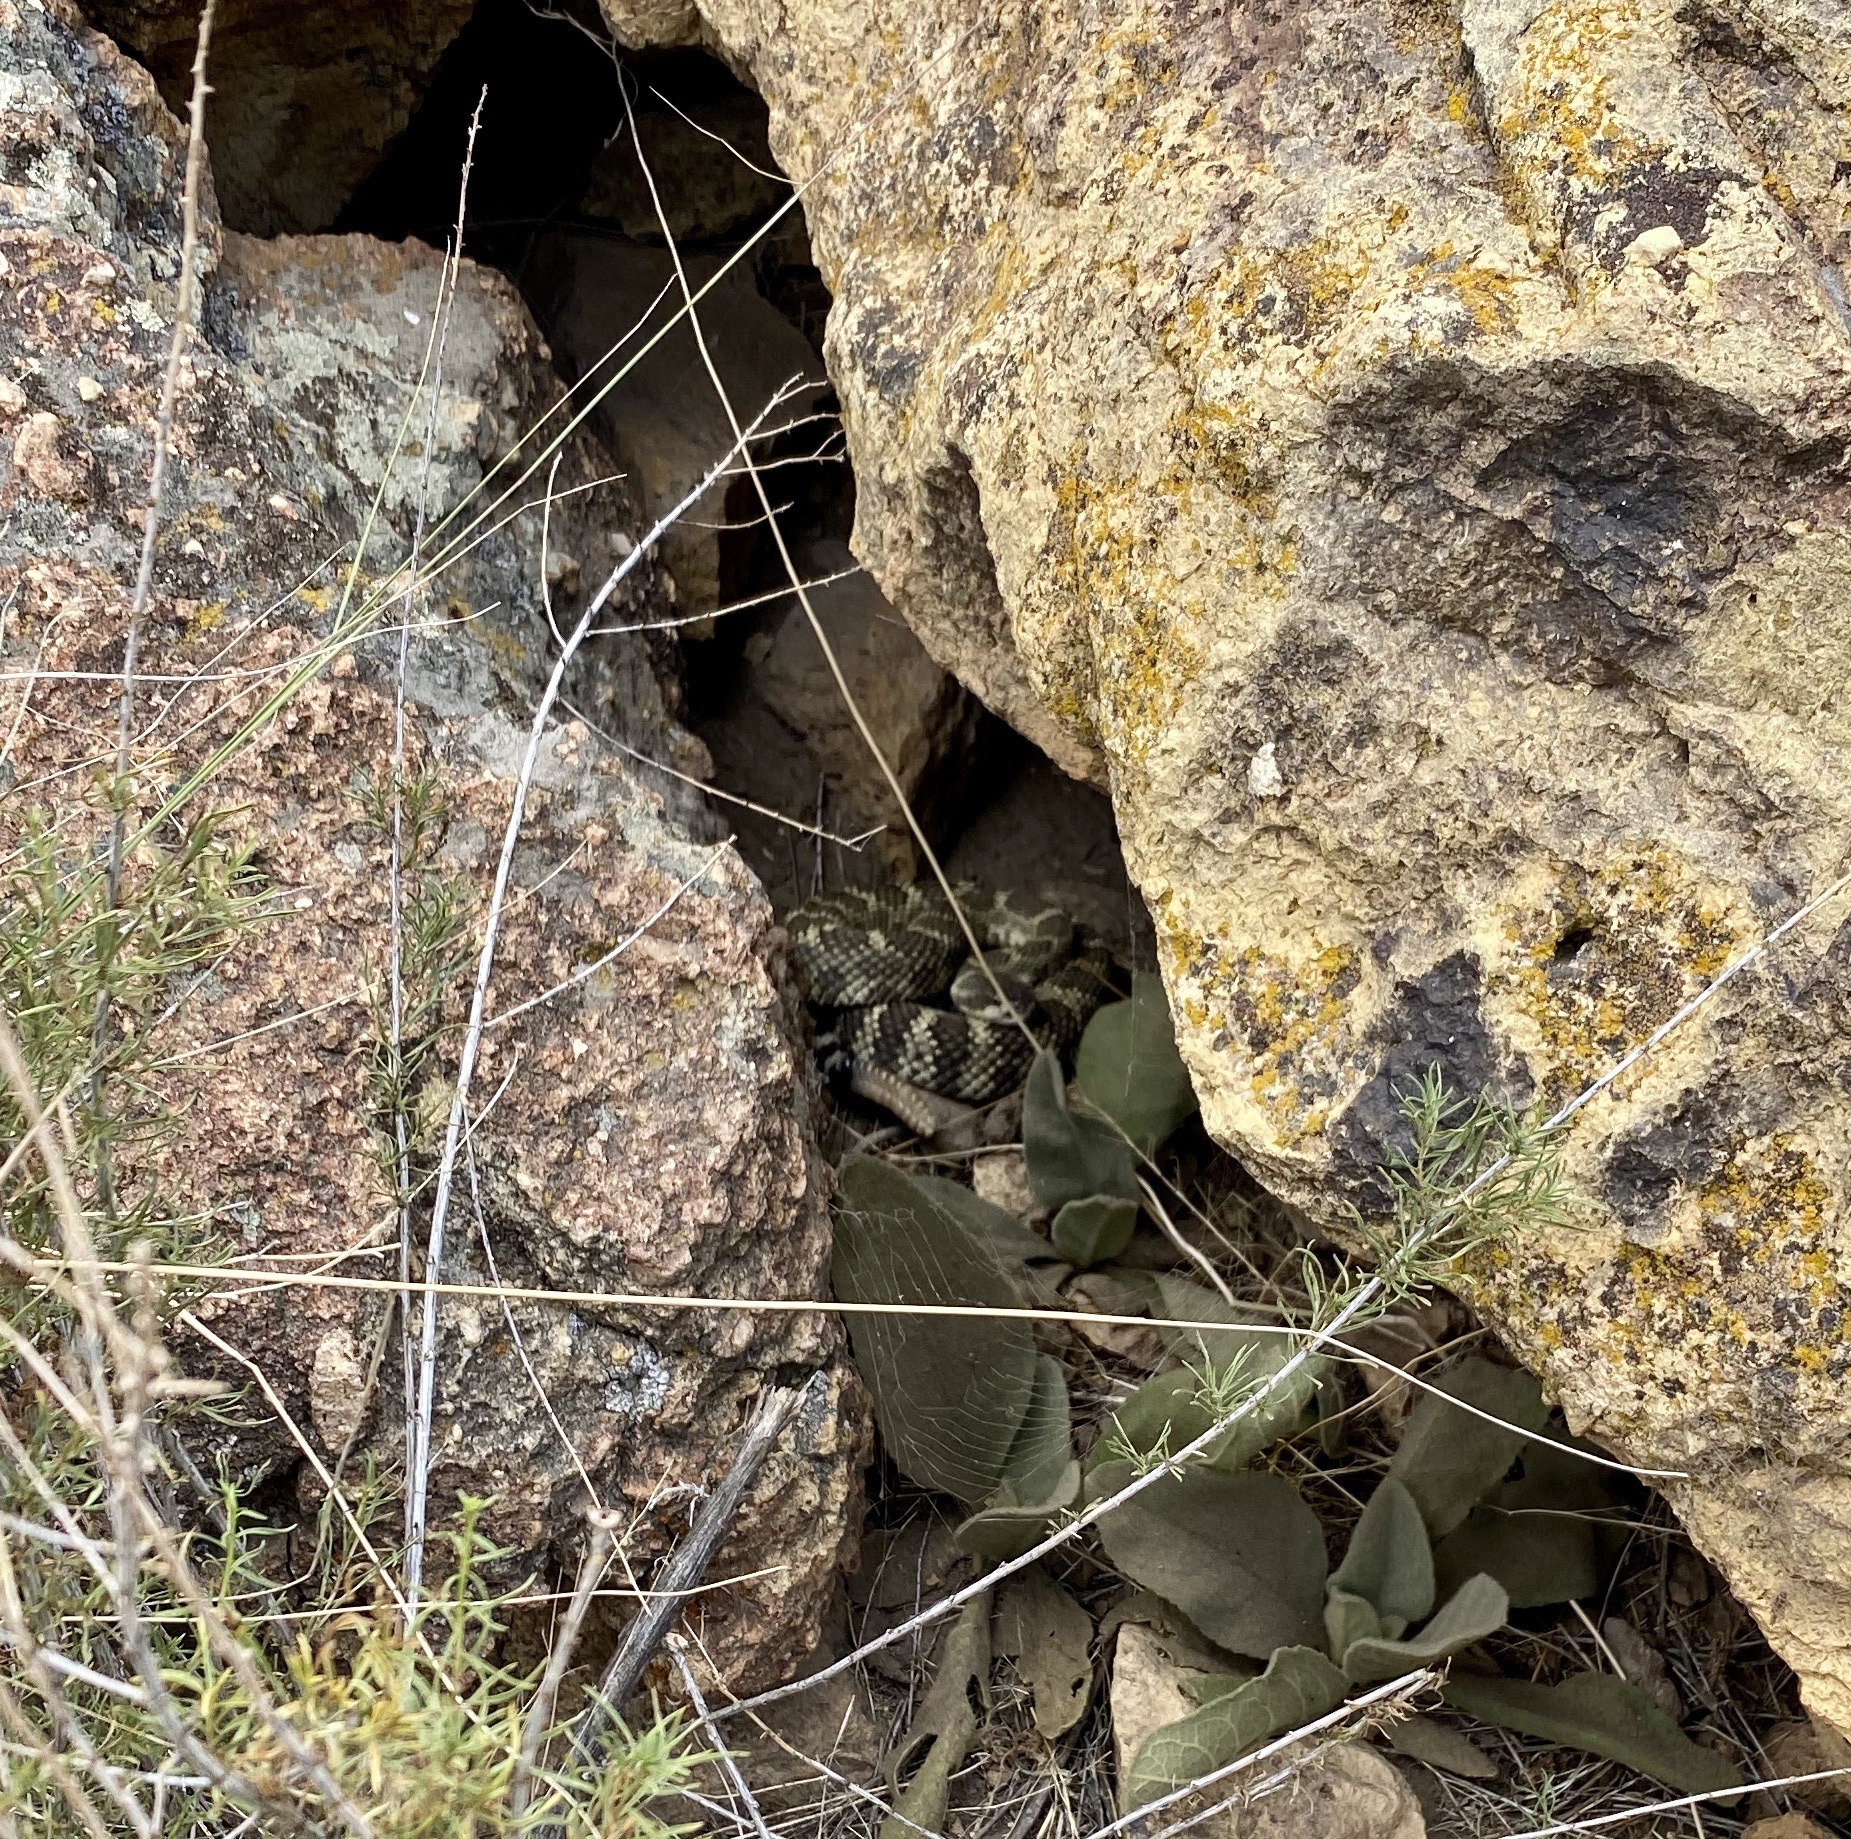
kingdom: Animalia
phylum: Chordata
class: Squamata
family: Viperidae
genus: Crotalus
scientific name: Crotalus oreganus
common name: Abyssus
